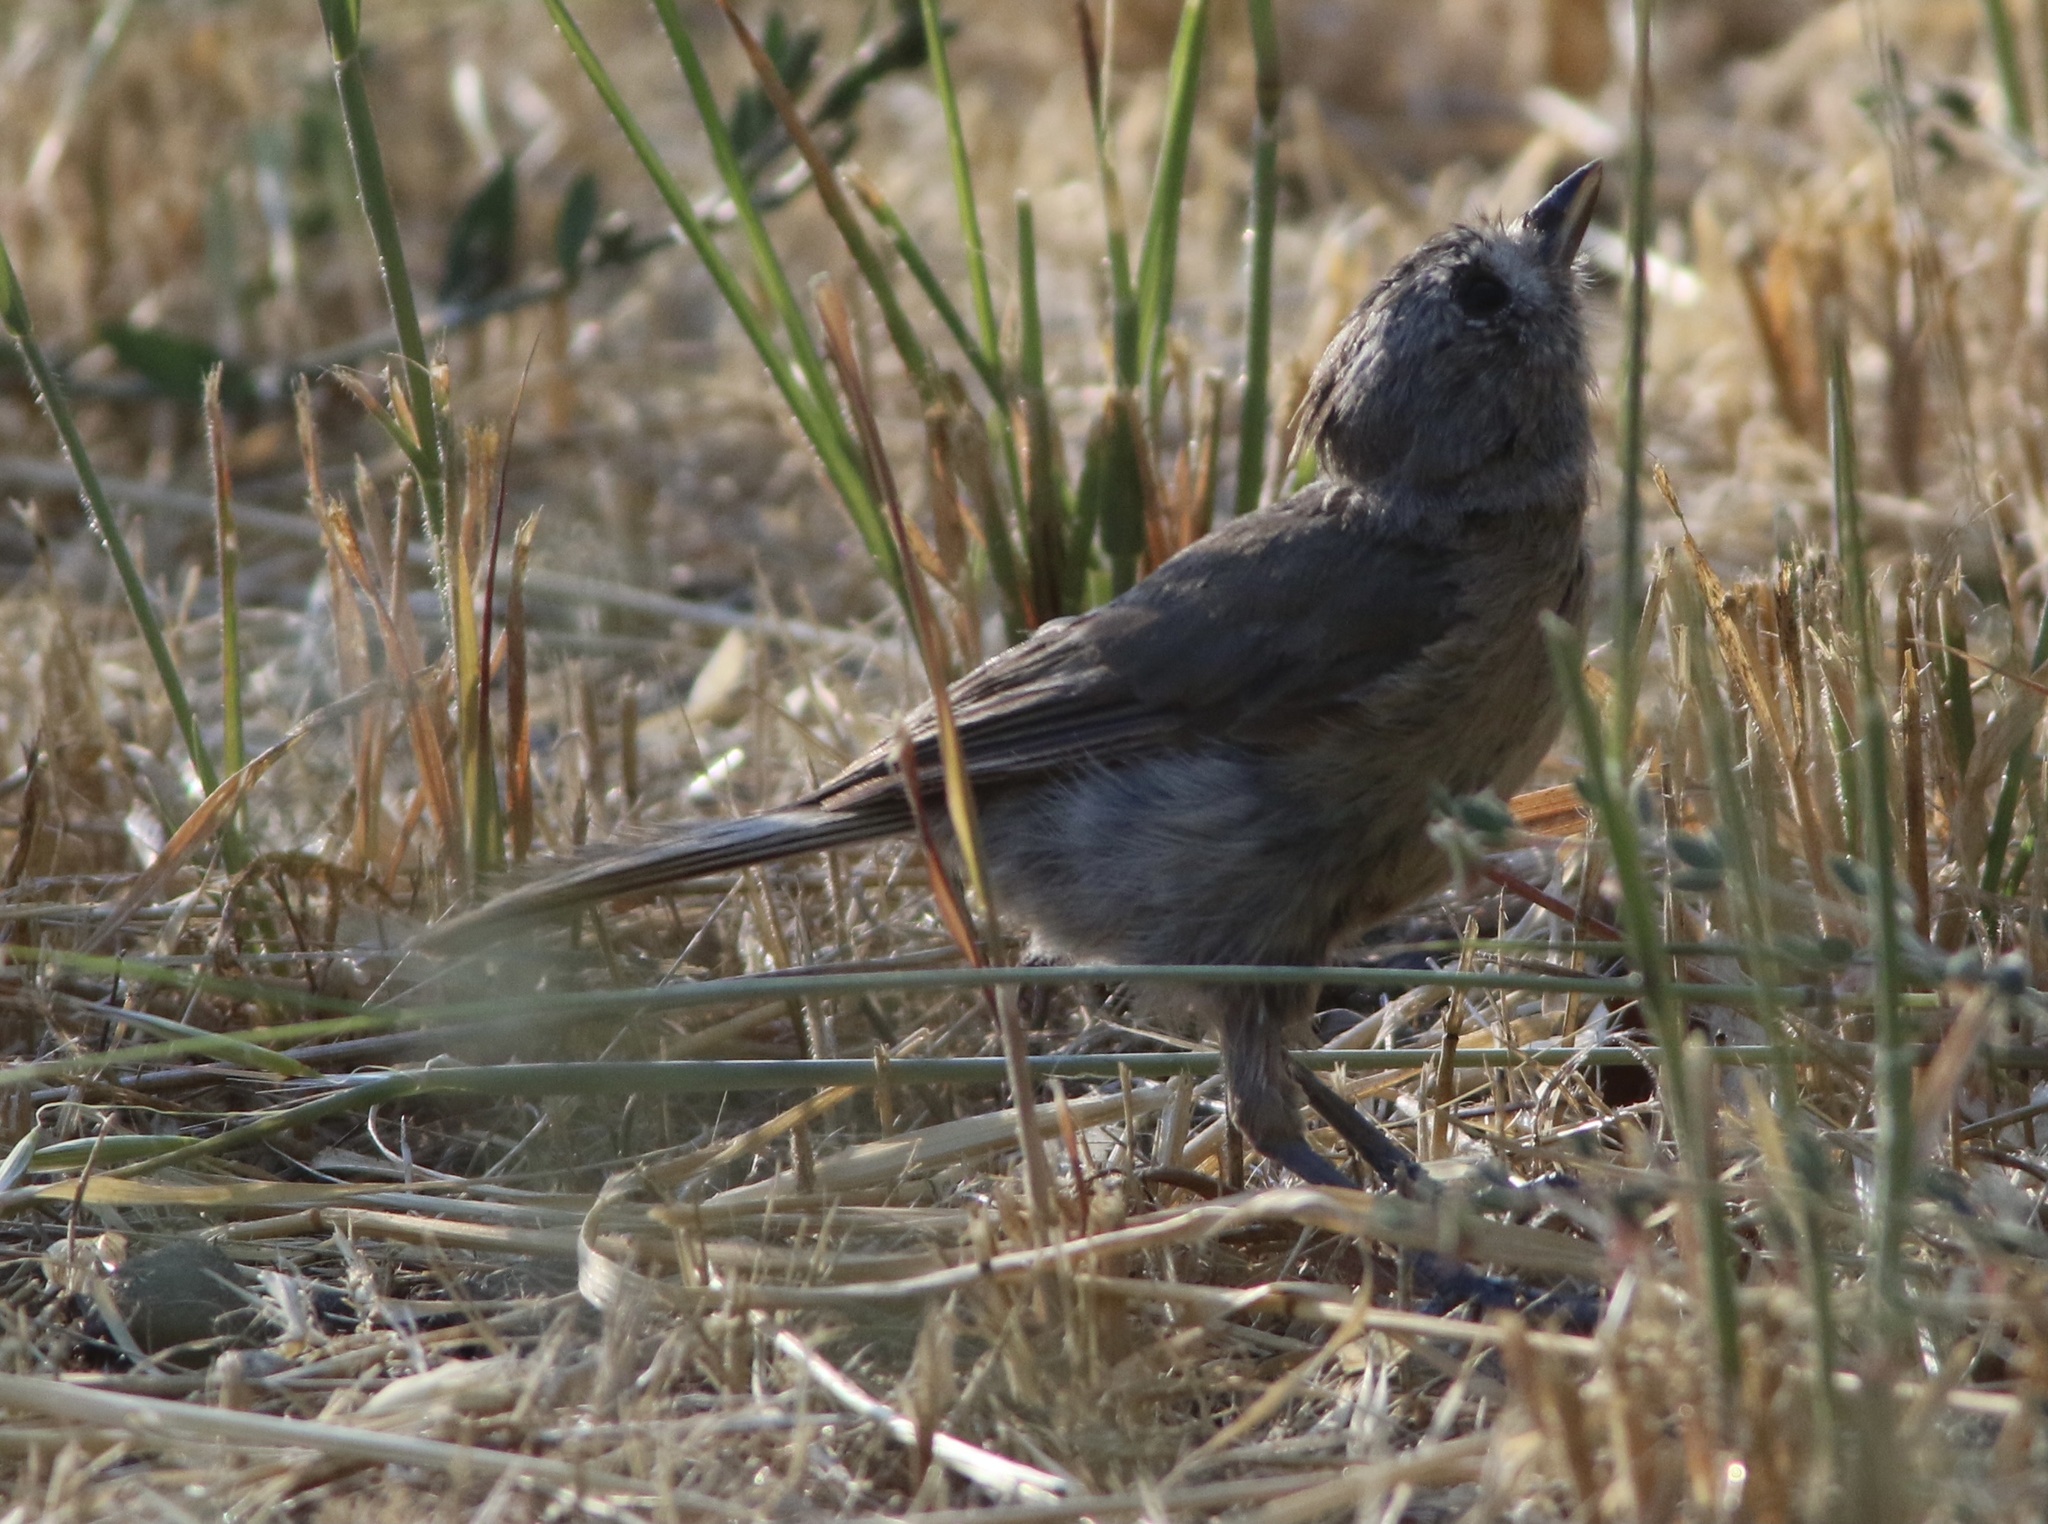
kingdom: Animalia
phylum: Chordata
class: Aves
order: Passeriformes
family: Paridae
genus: Baeolophus
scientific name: Baeolophus inornatus
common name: Oak titmouse
